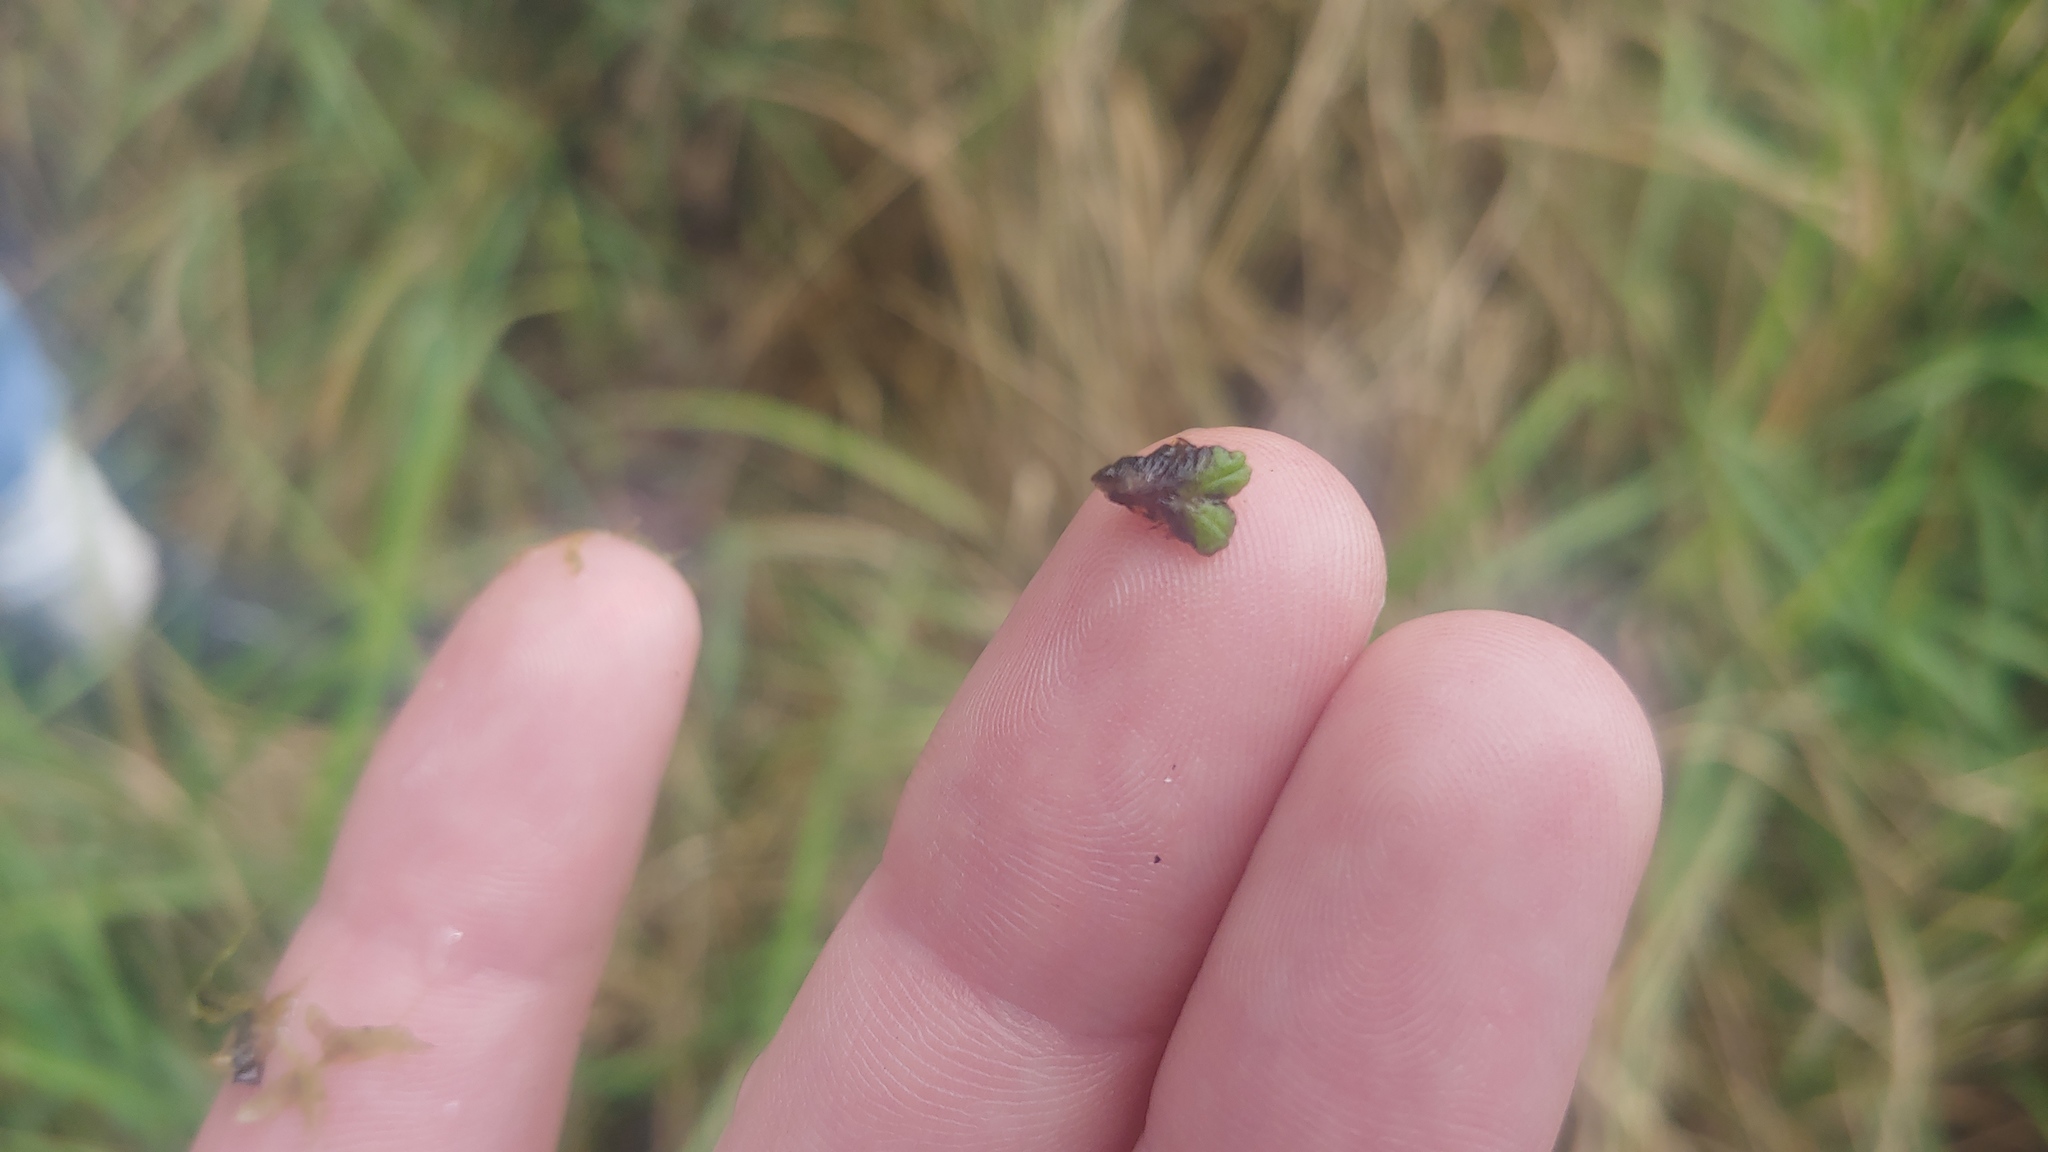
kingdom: Plantae
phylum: Marchantiophyta
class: Marchantiopsida
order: Marchantiales
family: Ricciaceae
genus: Ricciocarpos
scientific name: Ricciocarpos natans
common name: Purple-fringed liverwort
